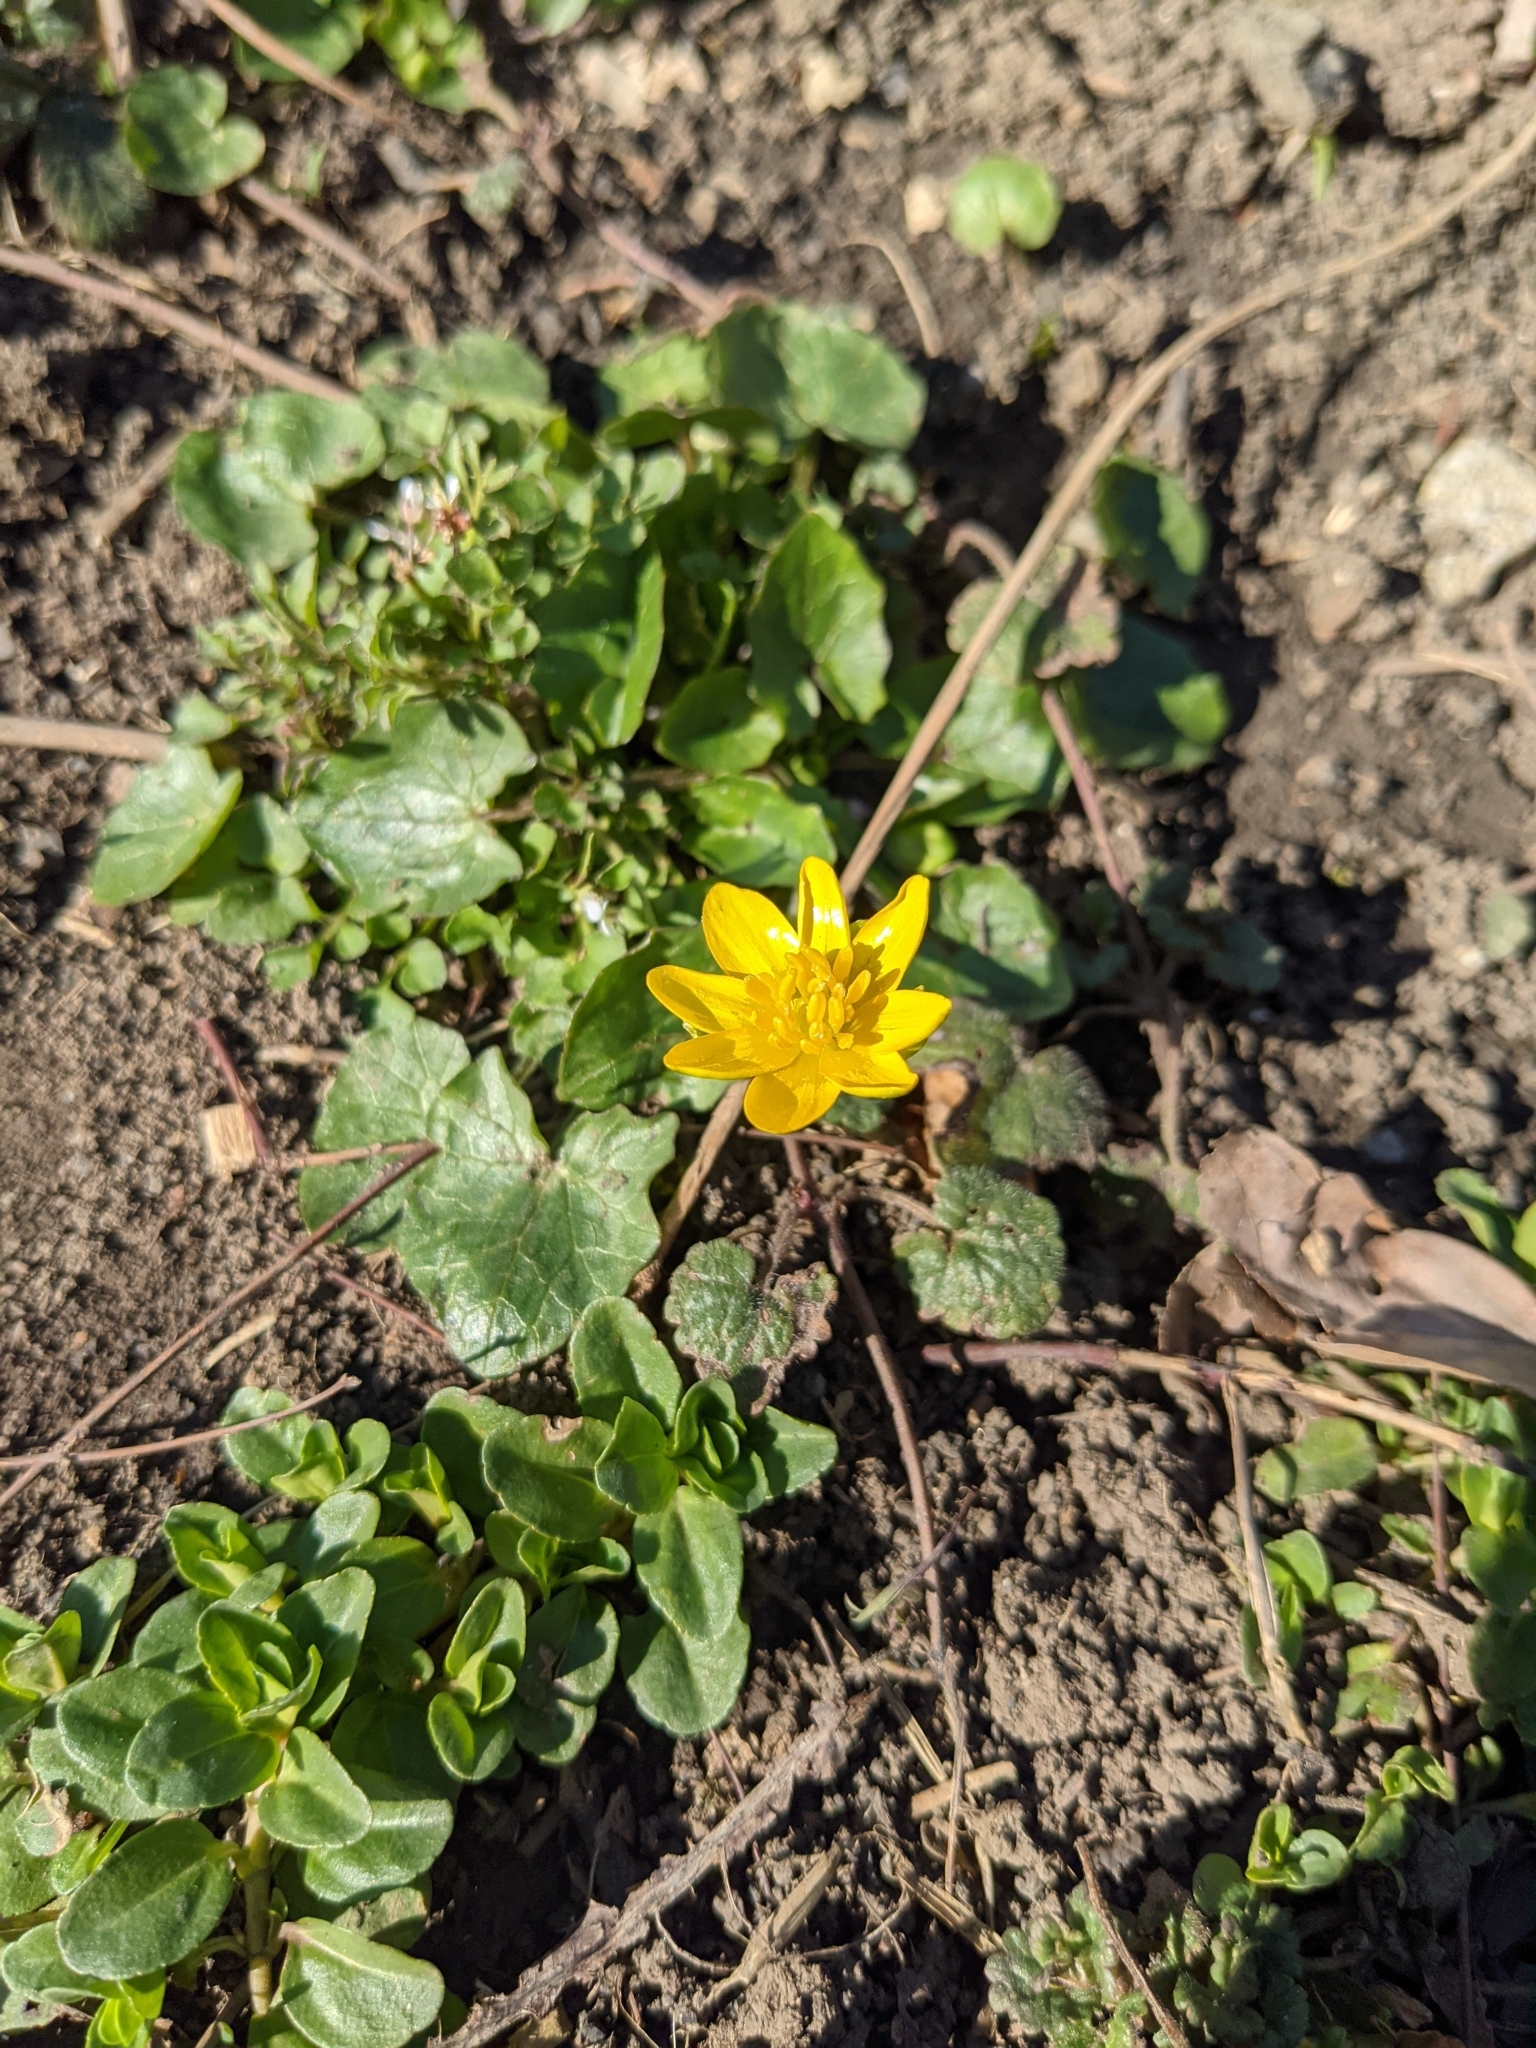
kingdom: Plantae
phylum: Tracheophyta
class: Magnoliopsida
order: Ranunculales
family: Ranunculaceae
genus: Ficaria
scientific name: Ficaria verna
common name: Lesser celandine
